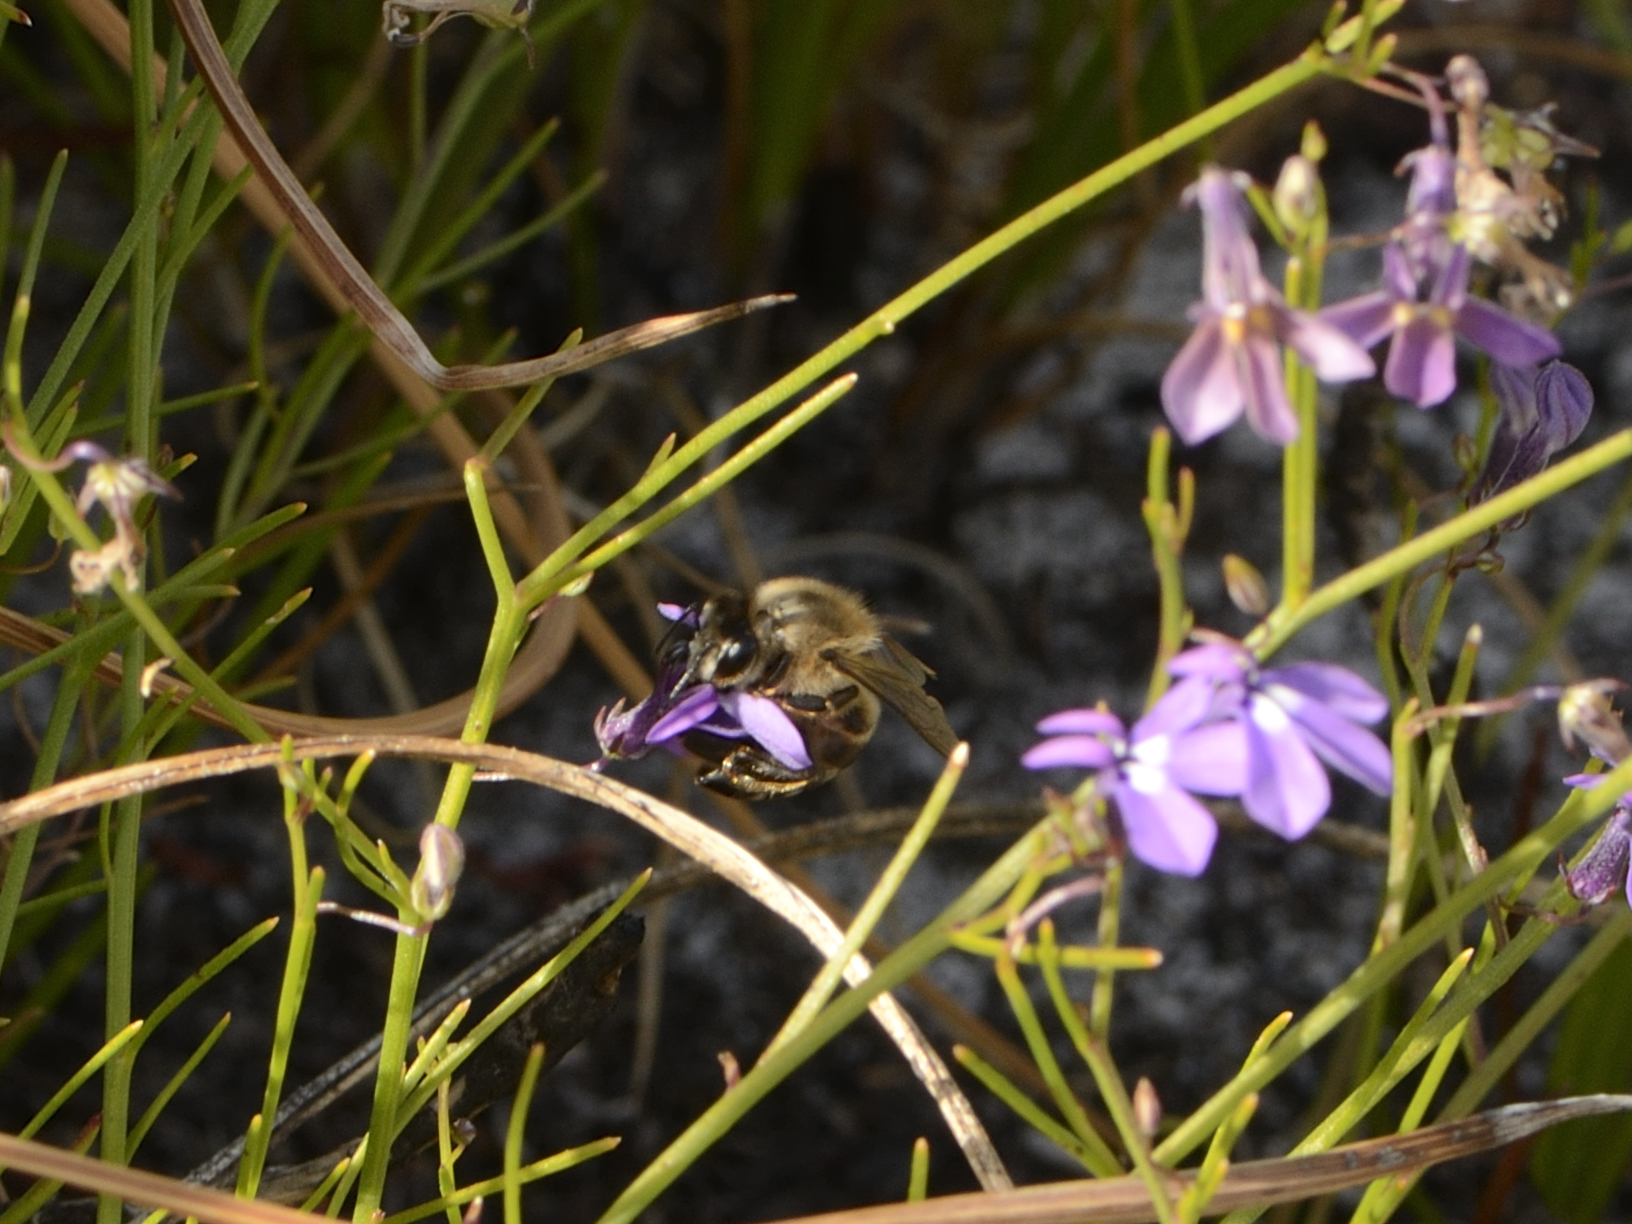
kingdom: Animalia
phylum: Arthropoda
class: Insecta
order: Hymenoptera
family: Apidae
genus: Apis
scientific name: Apis mellifera
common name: Honey bee
